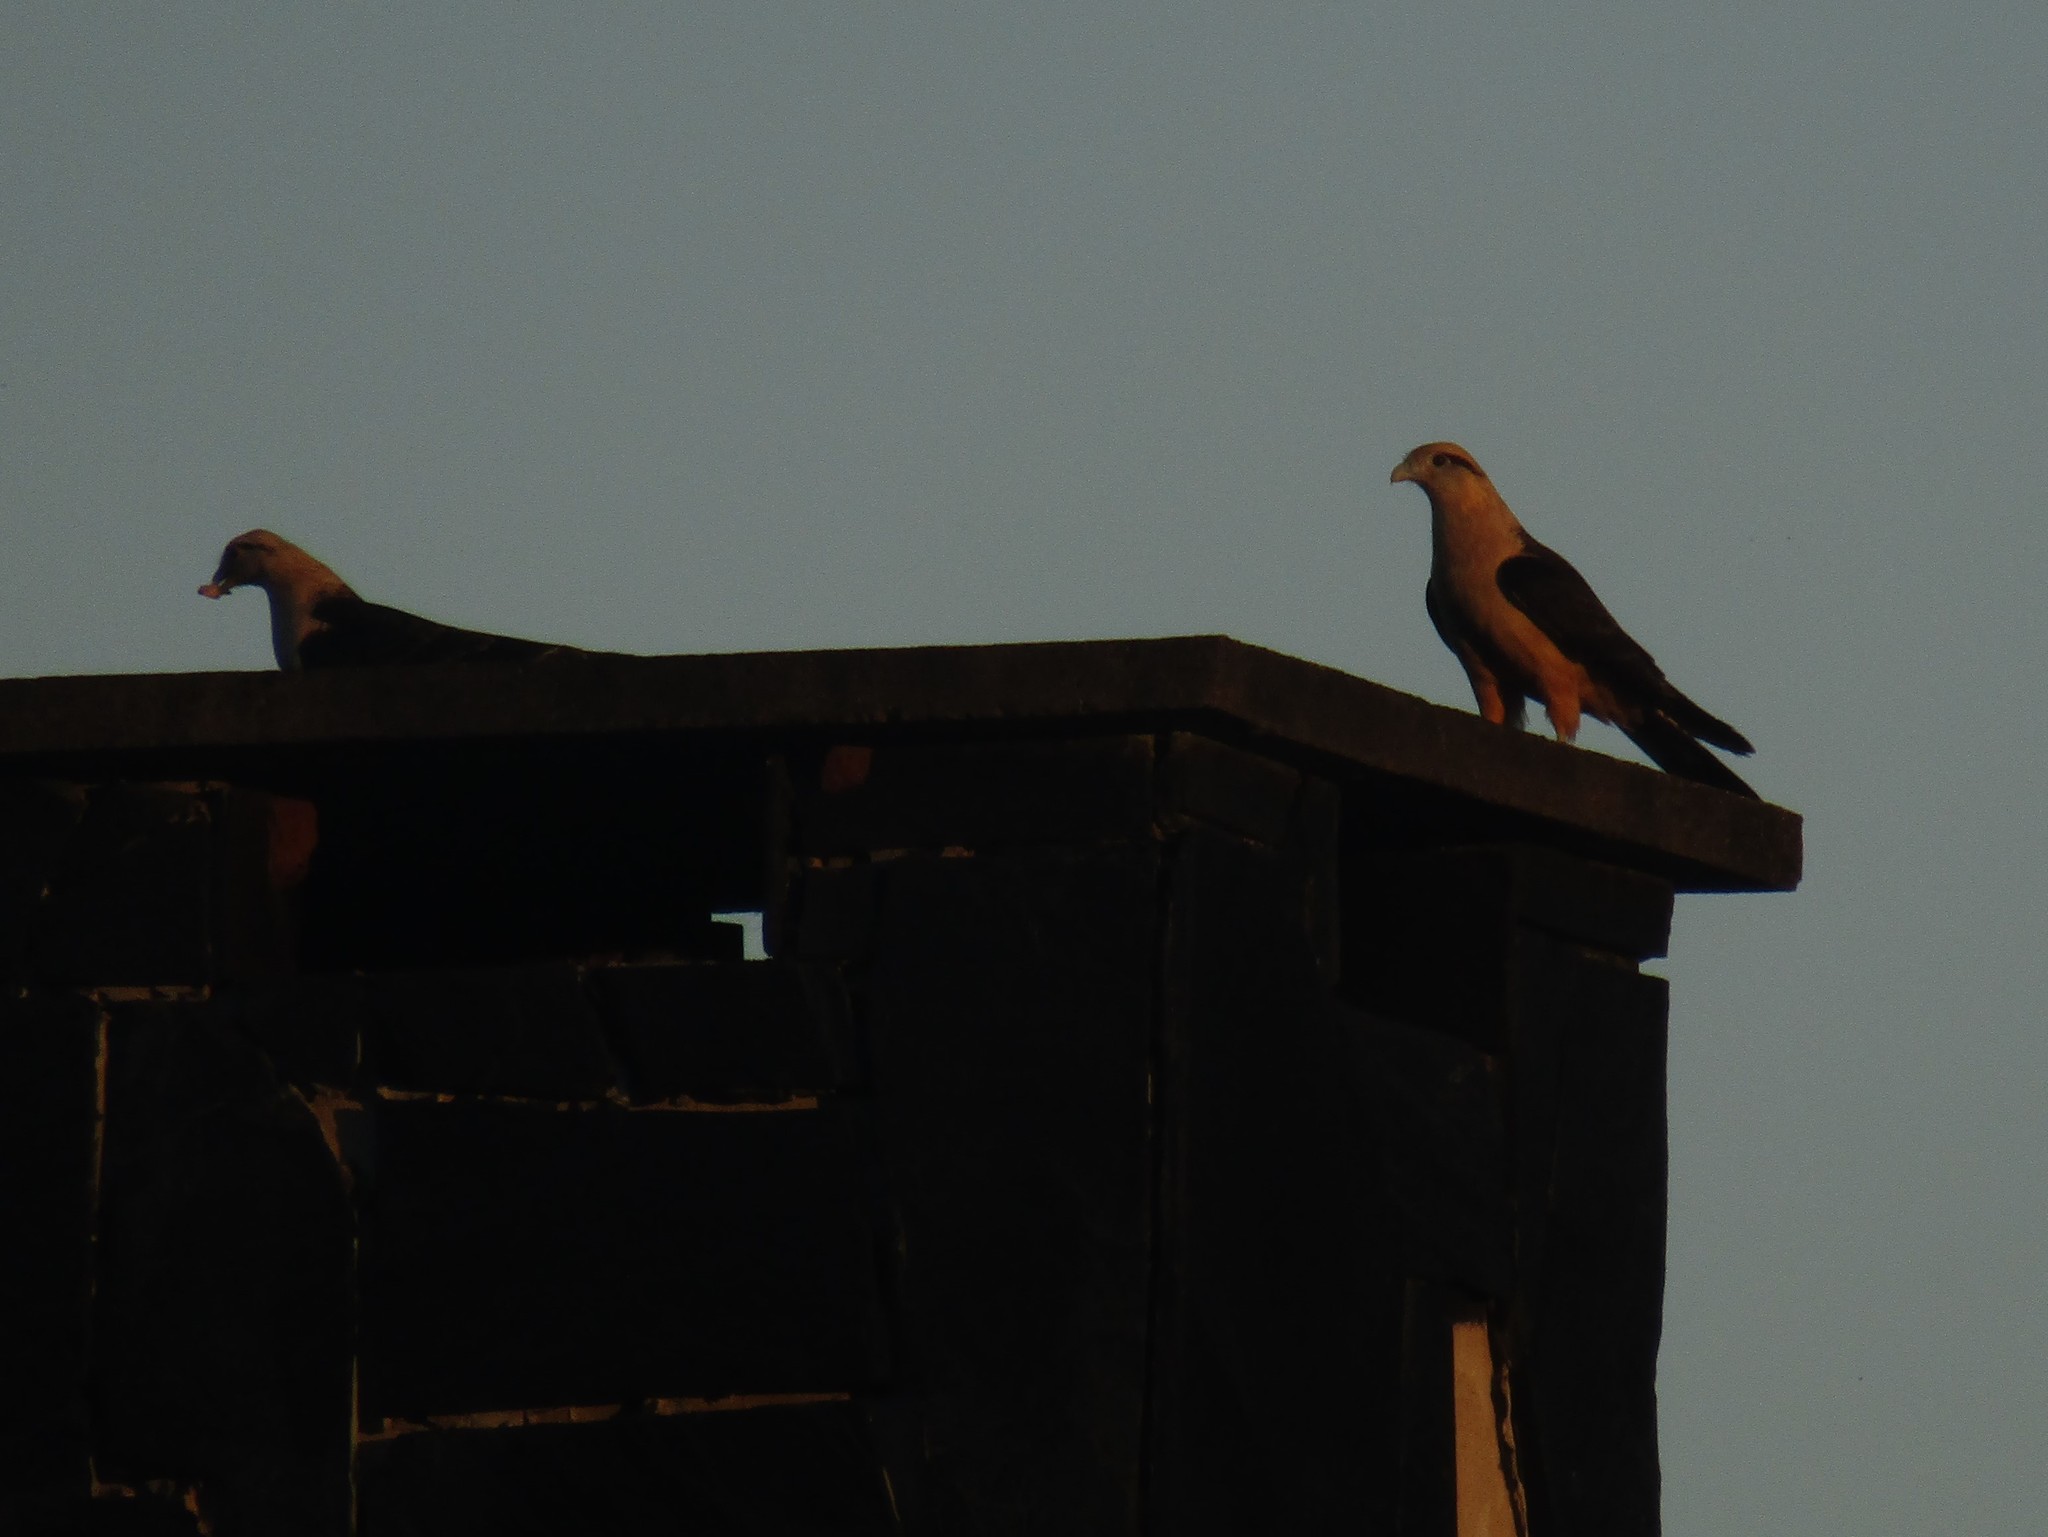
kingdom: Animalia
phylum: Chordata
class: Aves
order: Falconiformes
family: Falconidae
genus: Daptrius
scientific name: Daptrius
